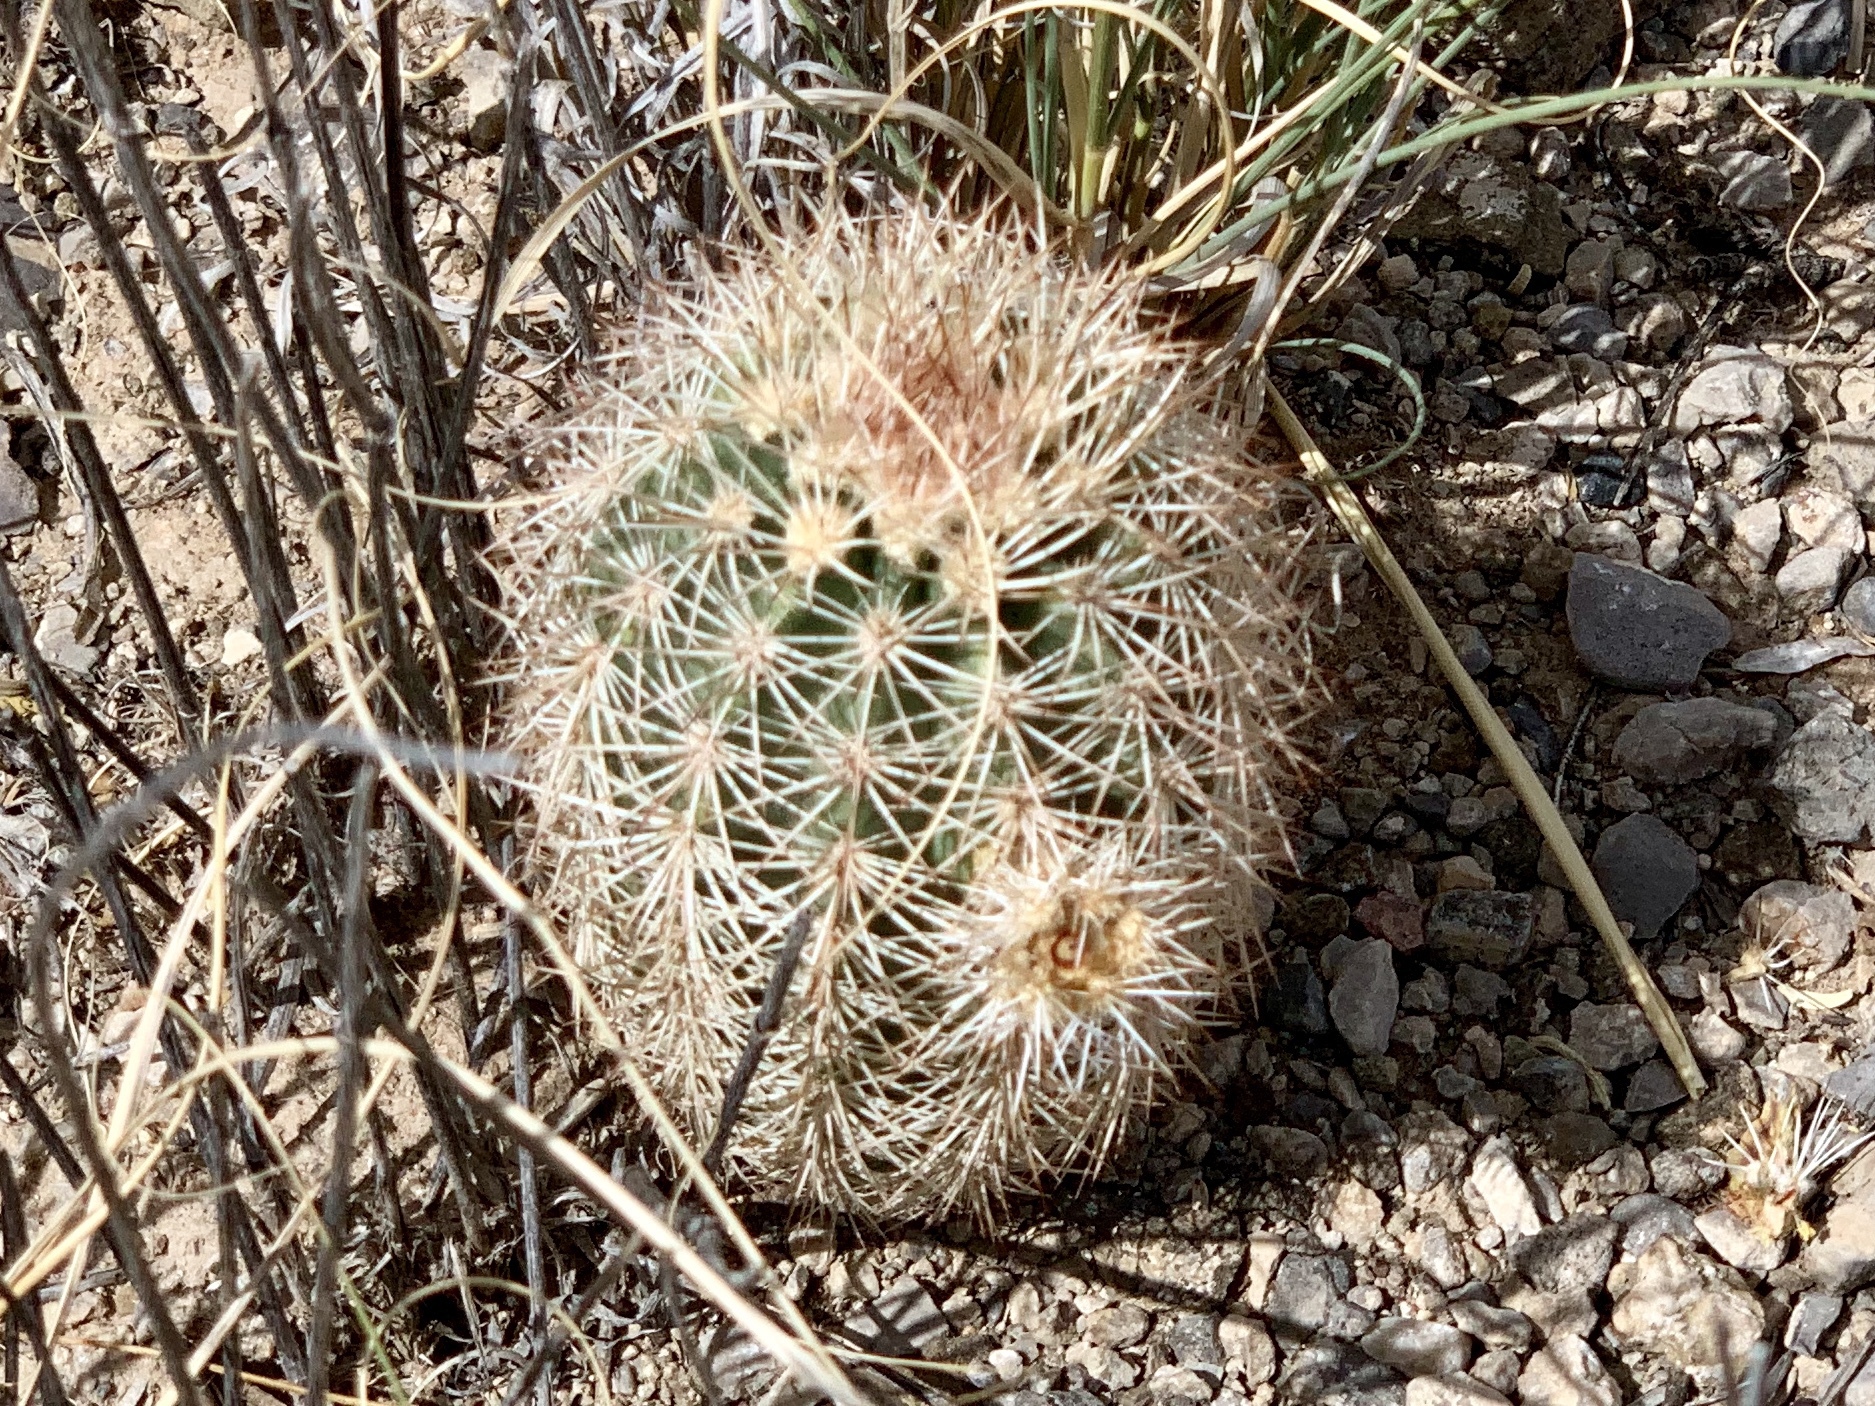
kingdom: Plantae
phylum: Tracheophyta
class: Magnoliopsida
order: Caryophyllales
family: Cactaceae
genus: Echinocereus
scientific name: Echinocereus dasyacanthus
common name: Spiny hedgehog cactus
